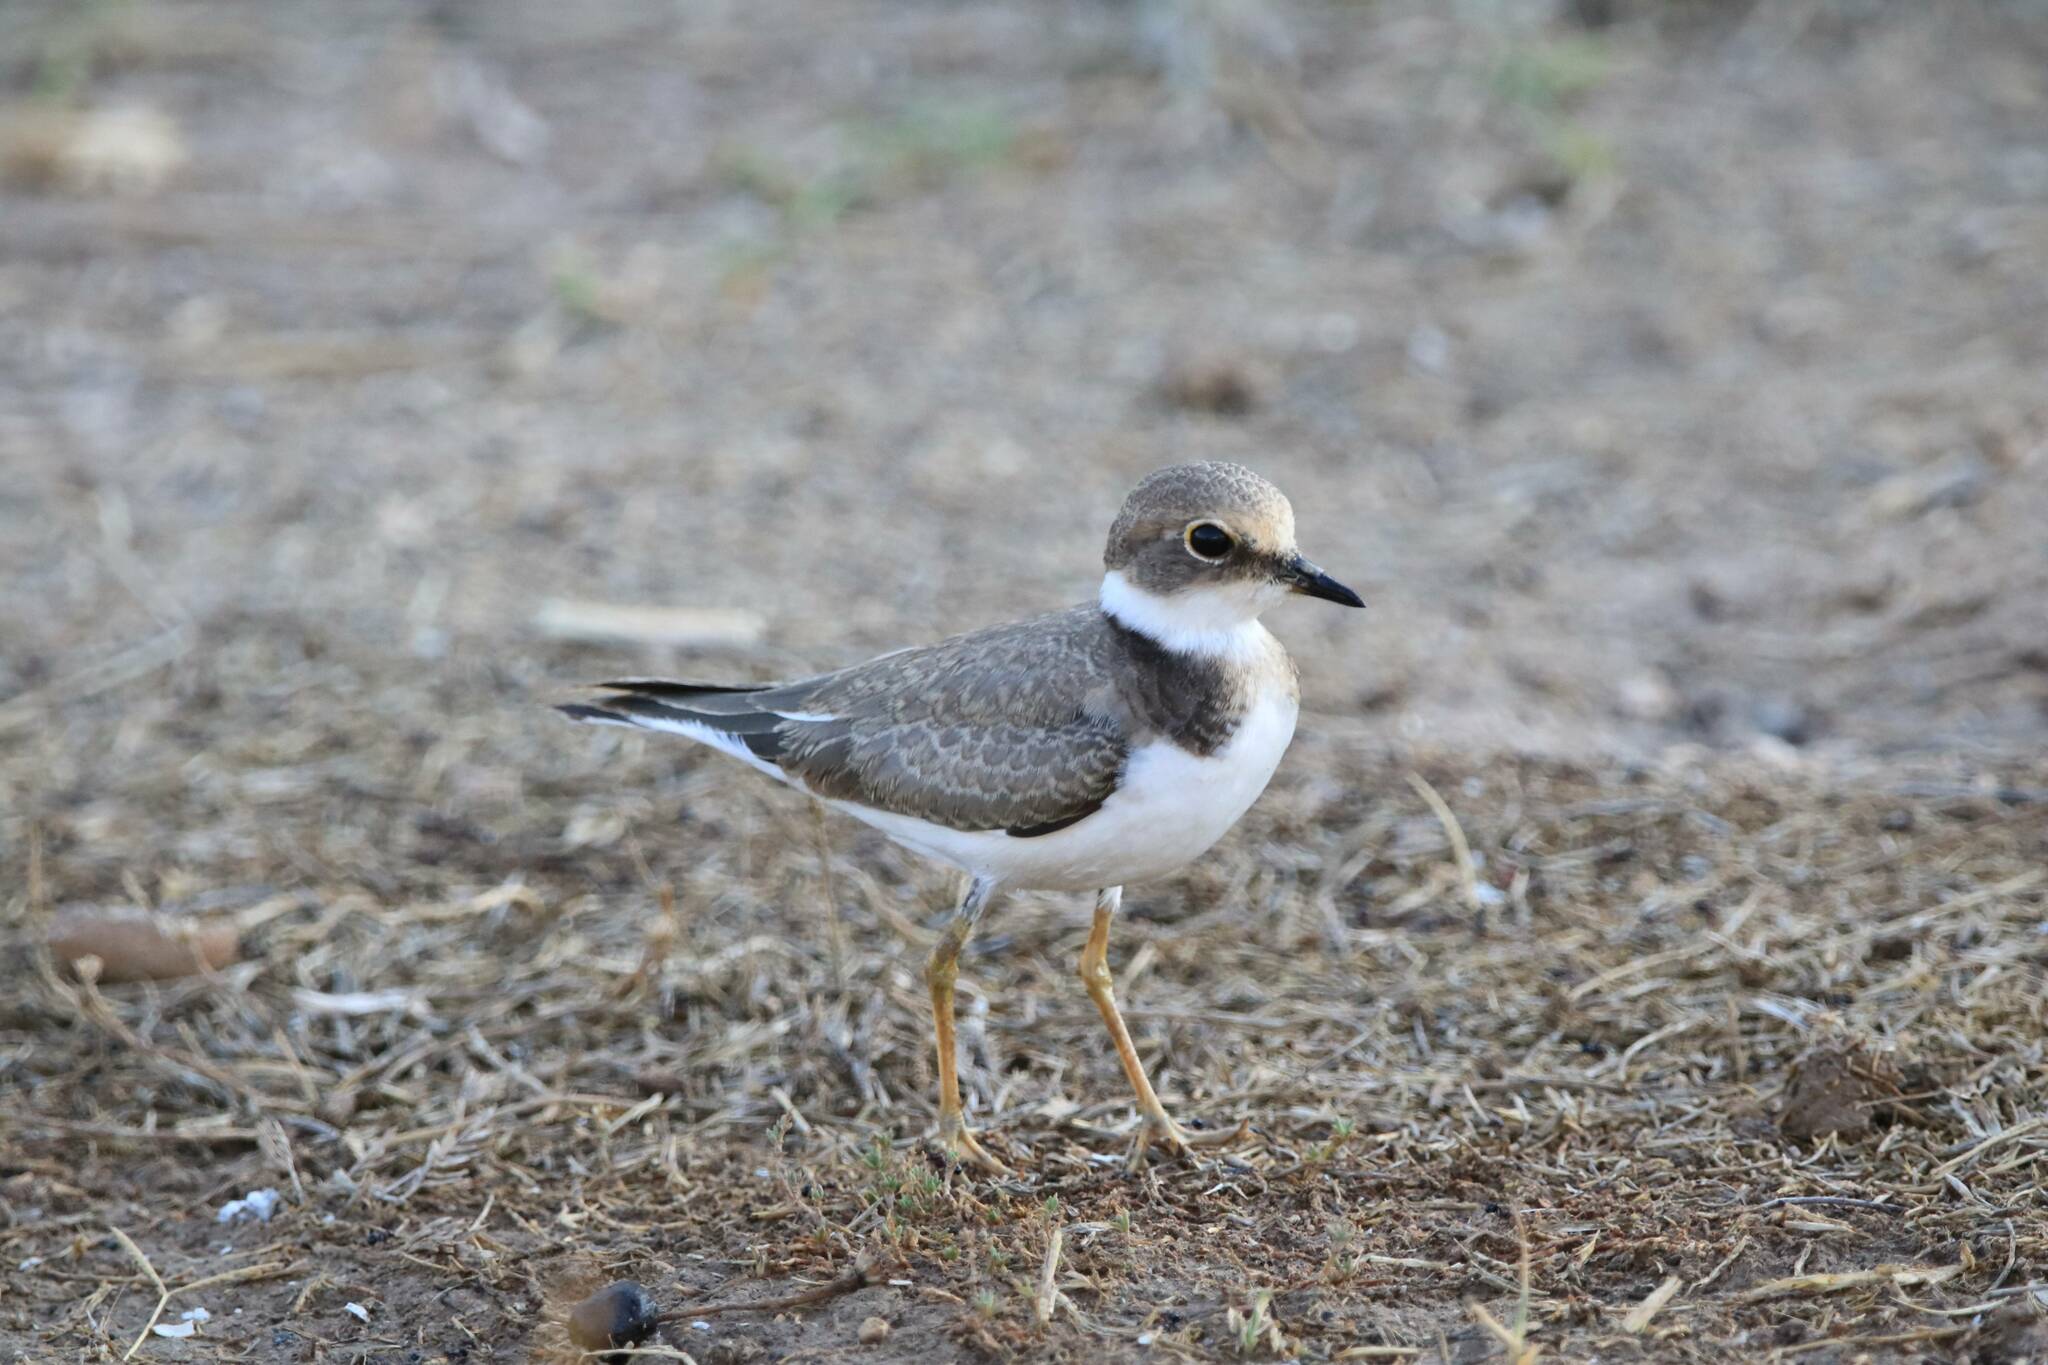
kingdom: Animalia
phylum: Chordata
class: Aves
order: Charadriiformes
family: Charadriidae
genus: Charadrius
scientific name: Charadrius dubius
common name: Little ringed plover
